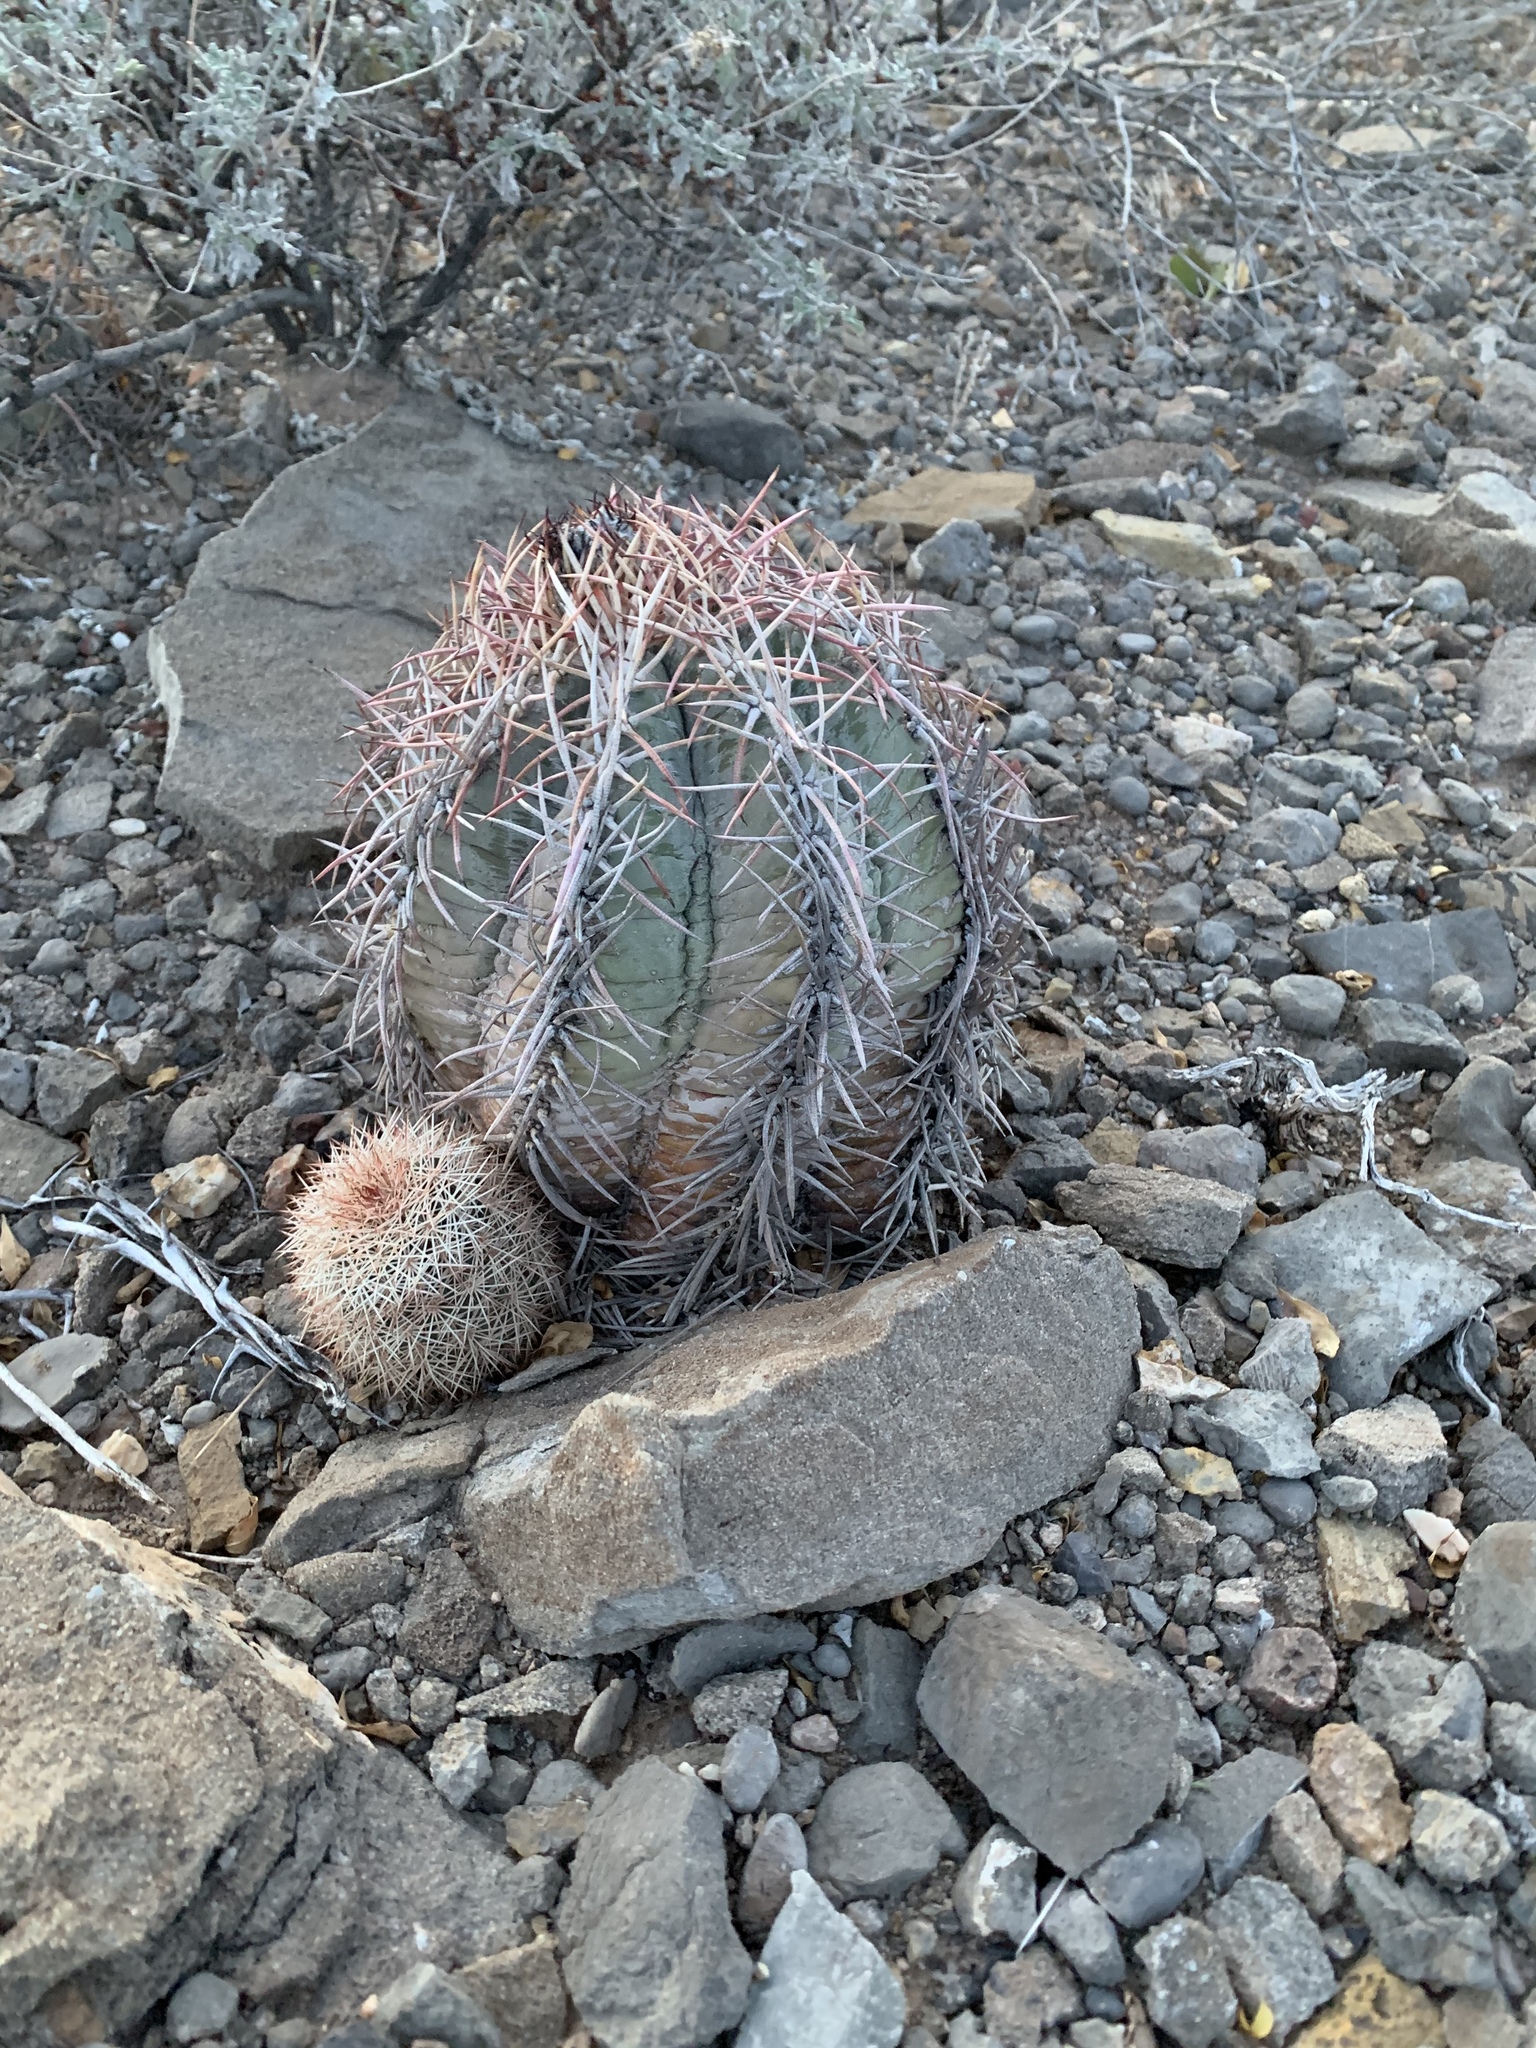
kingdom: Plantae
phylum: Tracheophyta
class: Magnoliopsida
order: Caryophyllales
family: Cactaceae
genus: Echinocereus
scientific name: Echinocereus dasyacanthus
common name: Spiny hedgehog cactus
